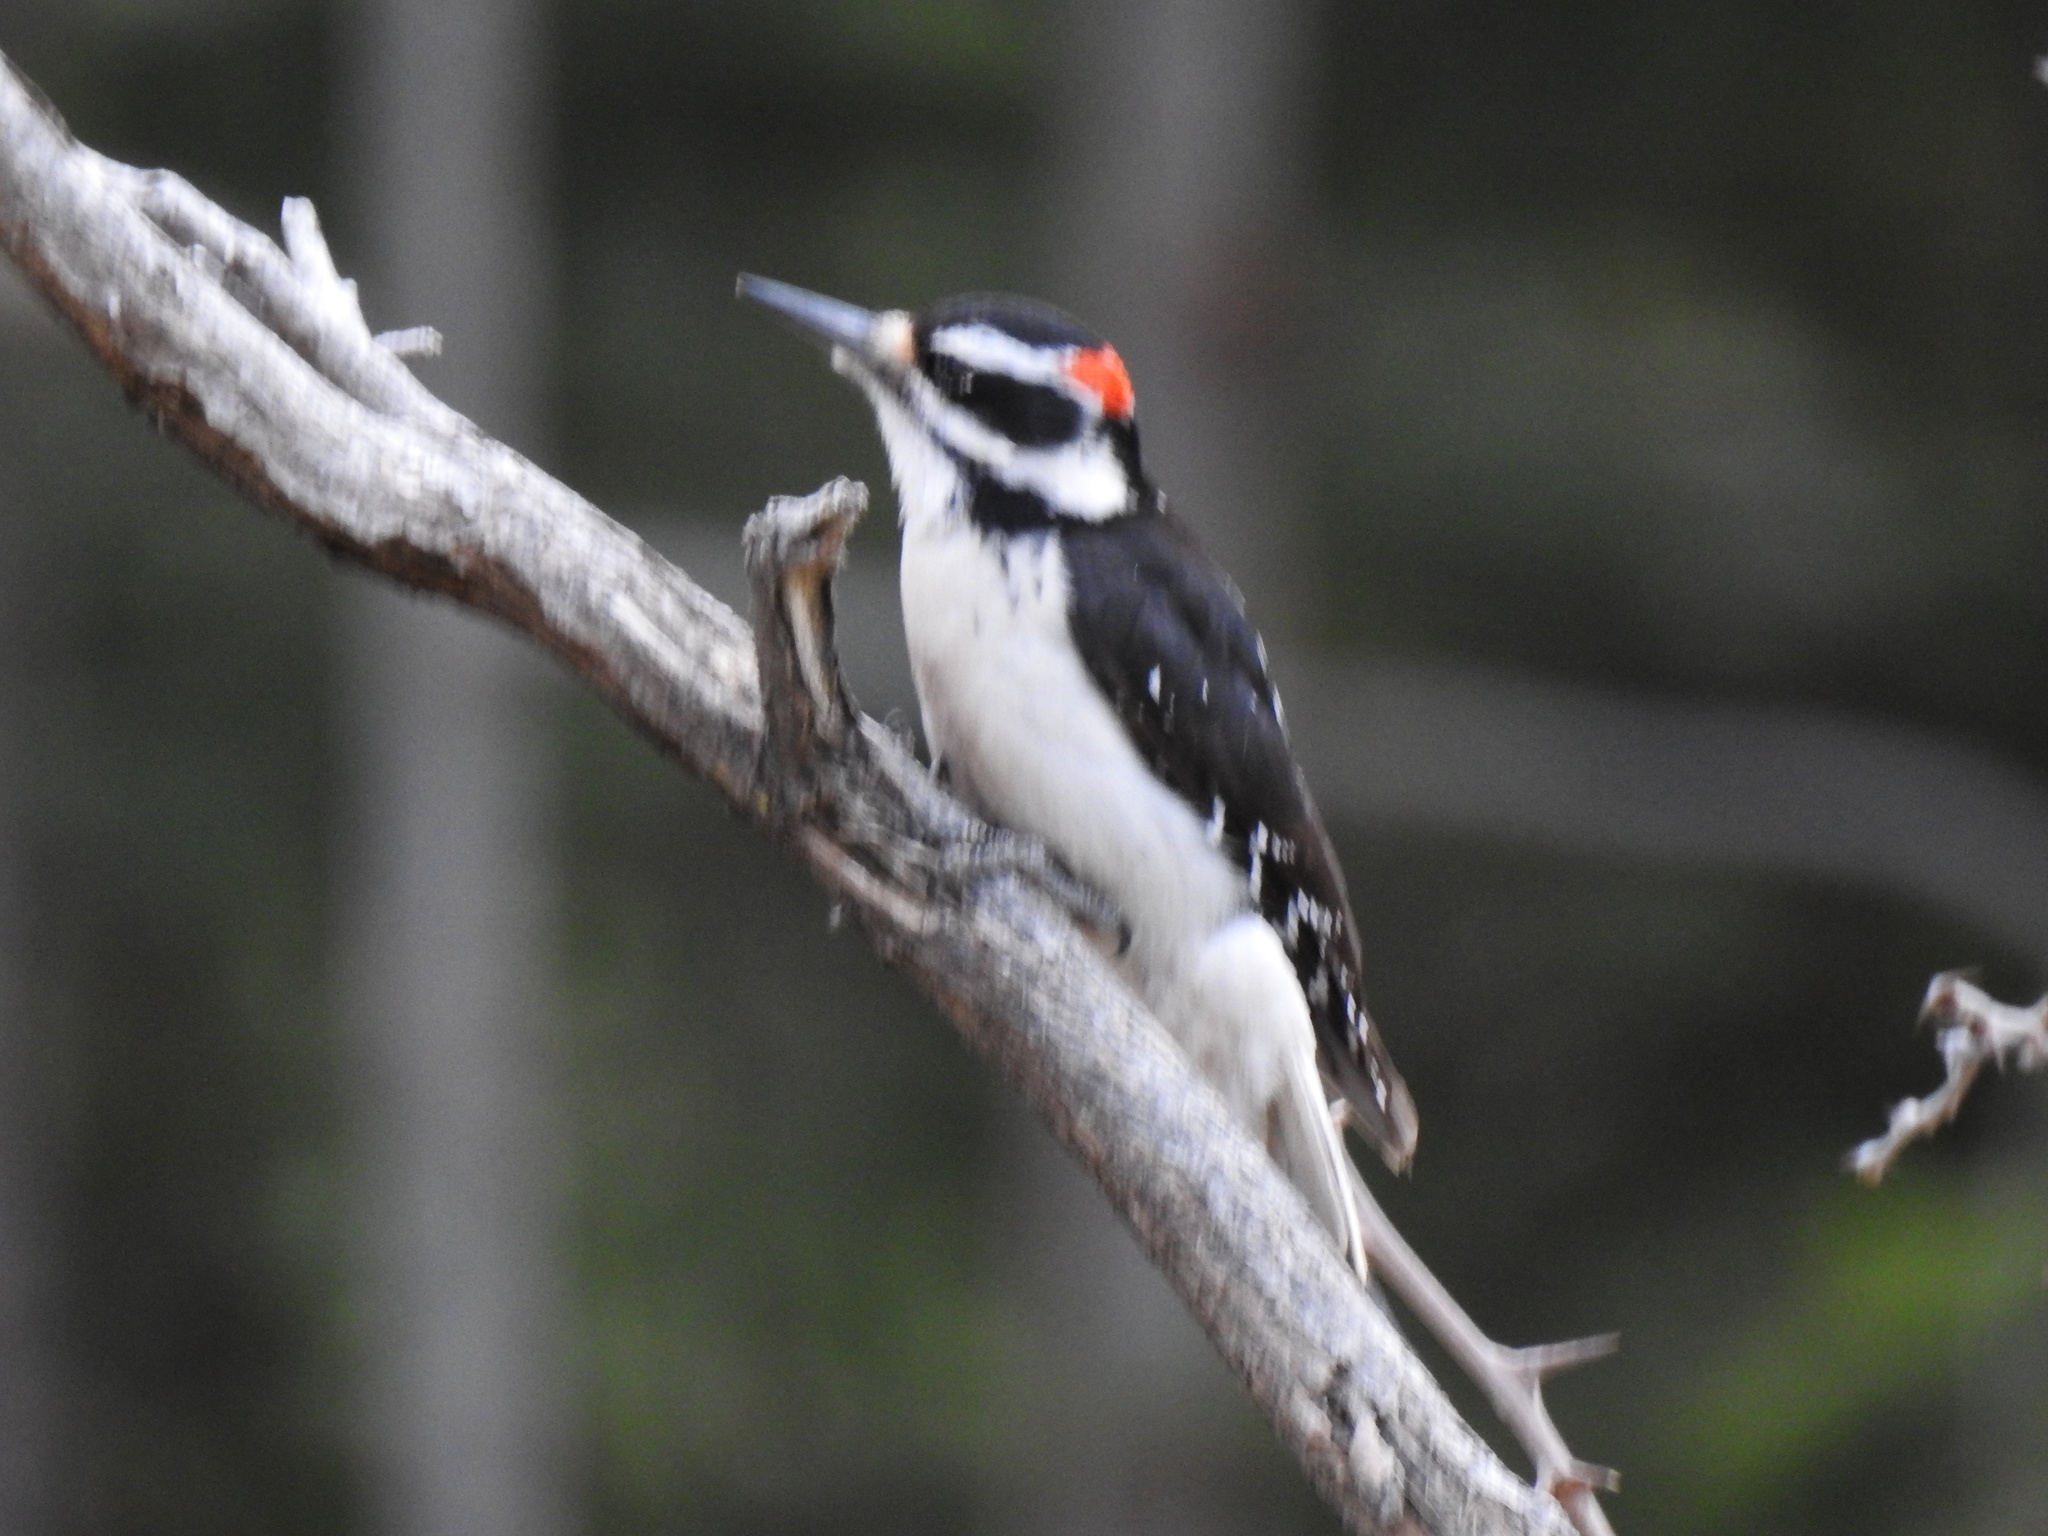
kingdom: Animalia
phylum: Chordata
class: Aves
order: Piciformes
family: Picidae
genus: Leuconotopicus
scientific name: Leuconotopicus villosus
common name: Hairy woodpecker
